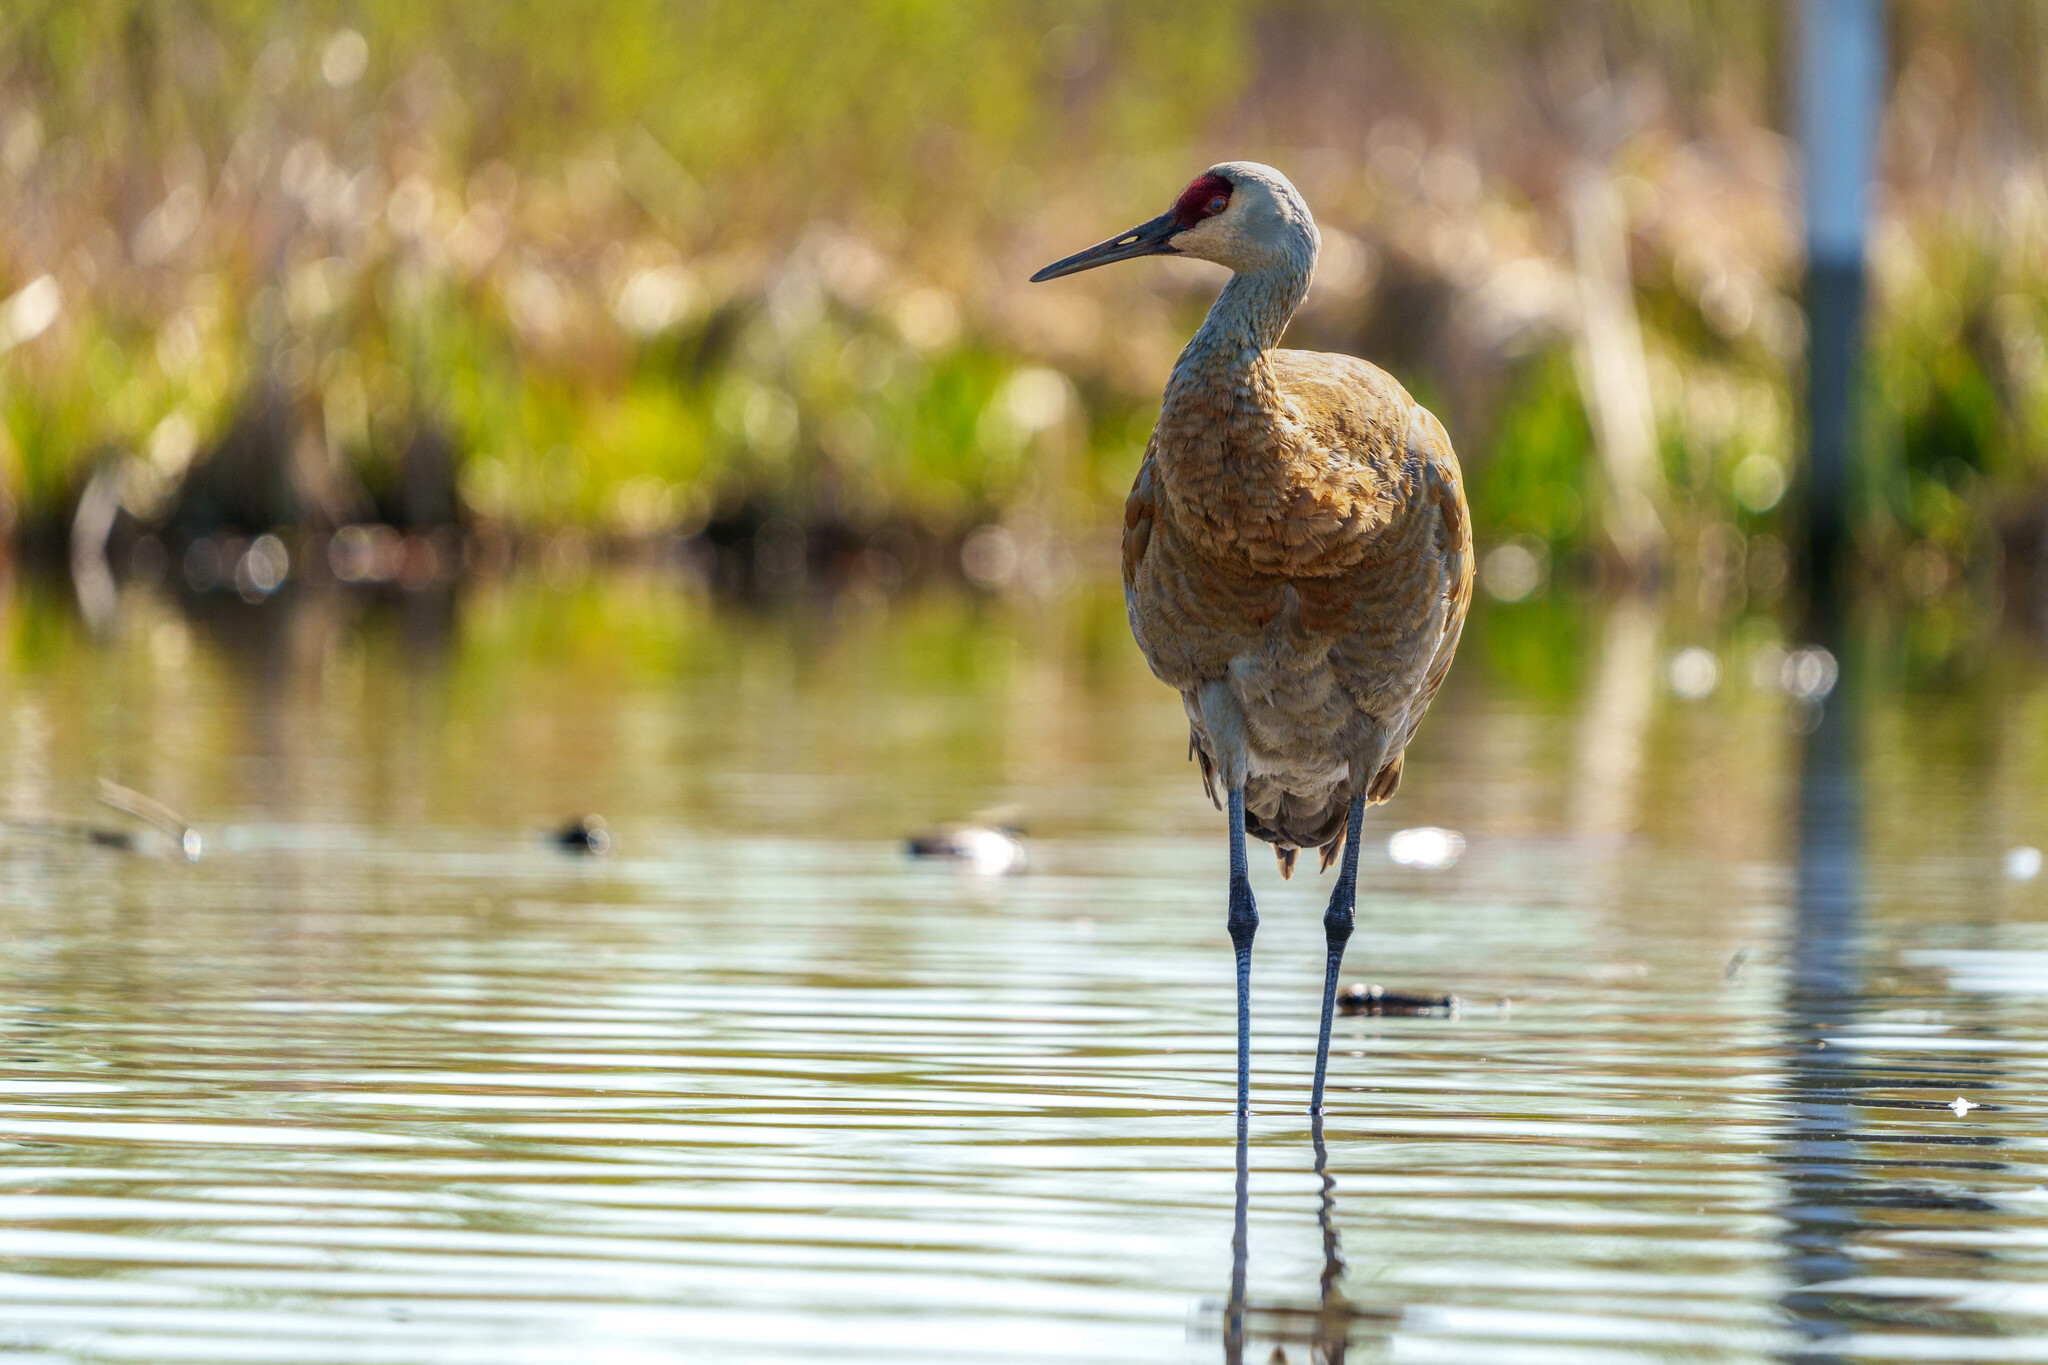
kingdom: Animalia
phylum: Chordata
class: Aves
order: Gruiformes
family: Gruidae
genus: Grus
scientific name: Grus canadensis
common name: Sandhill crane
